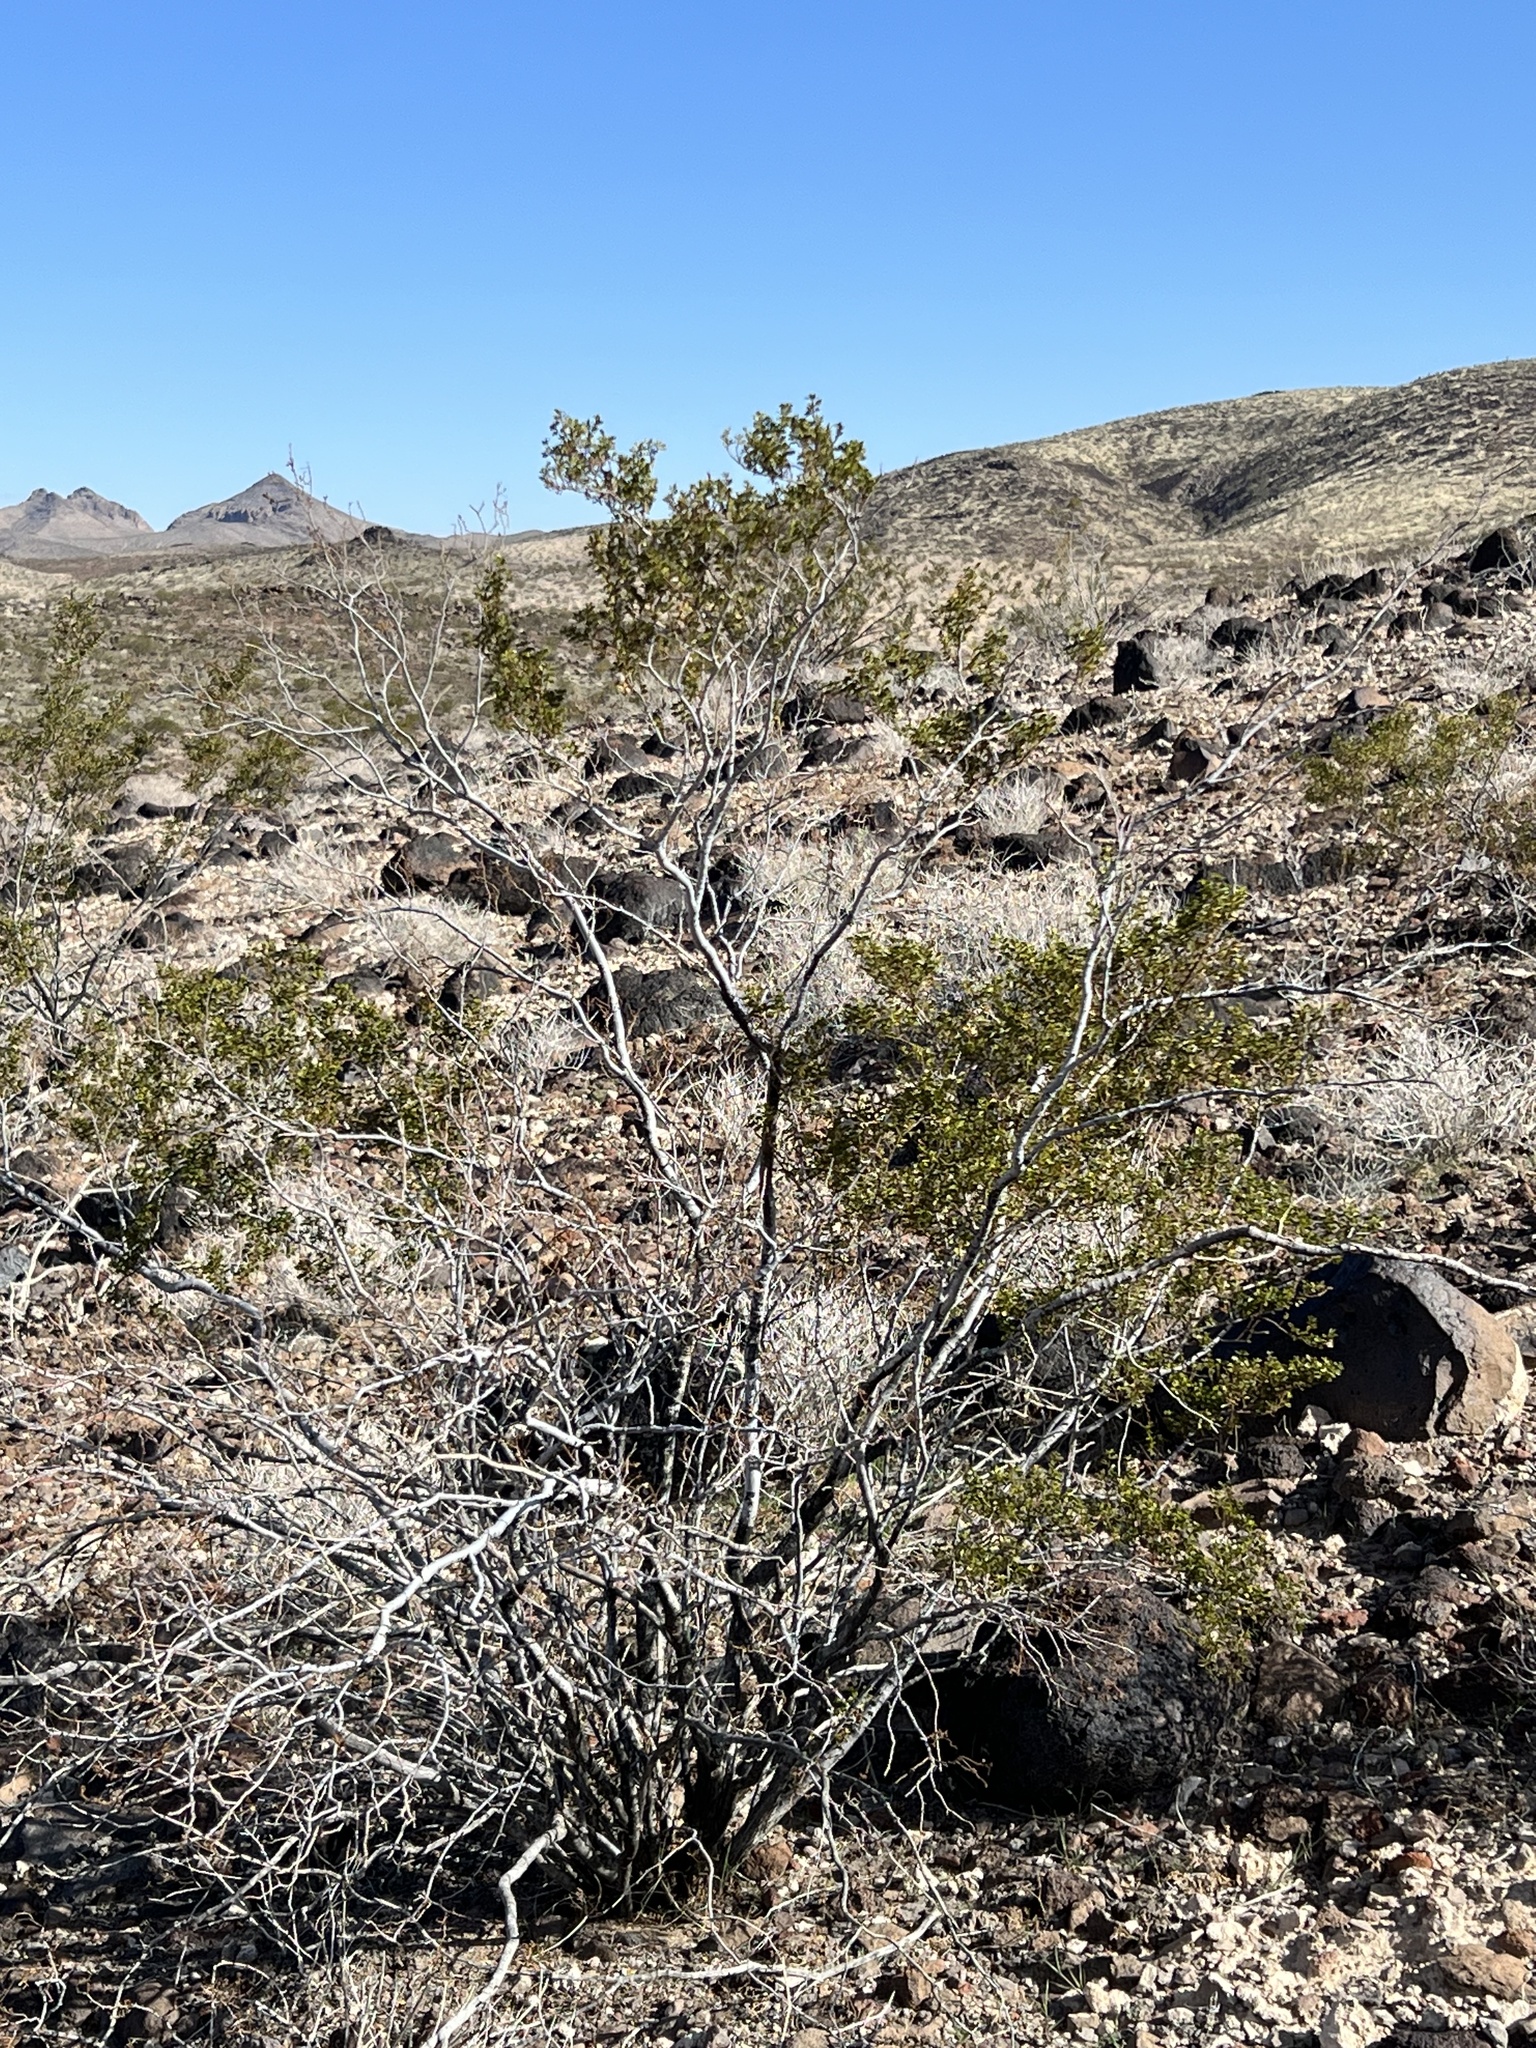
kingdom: Plantae
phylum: Tracheophyta
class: Magnoliopsida
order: Zygophyllales
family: Zygophyllaceae
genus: Larrea
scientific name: Larrea tridentata
